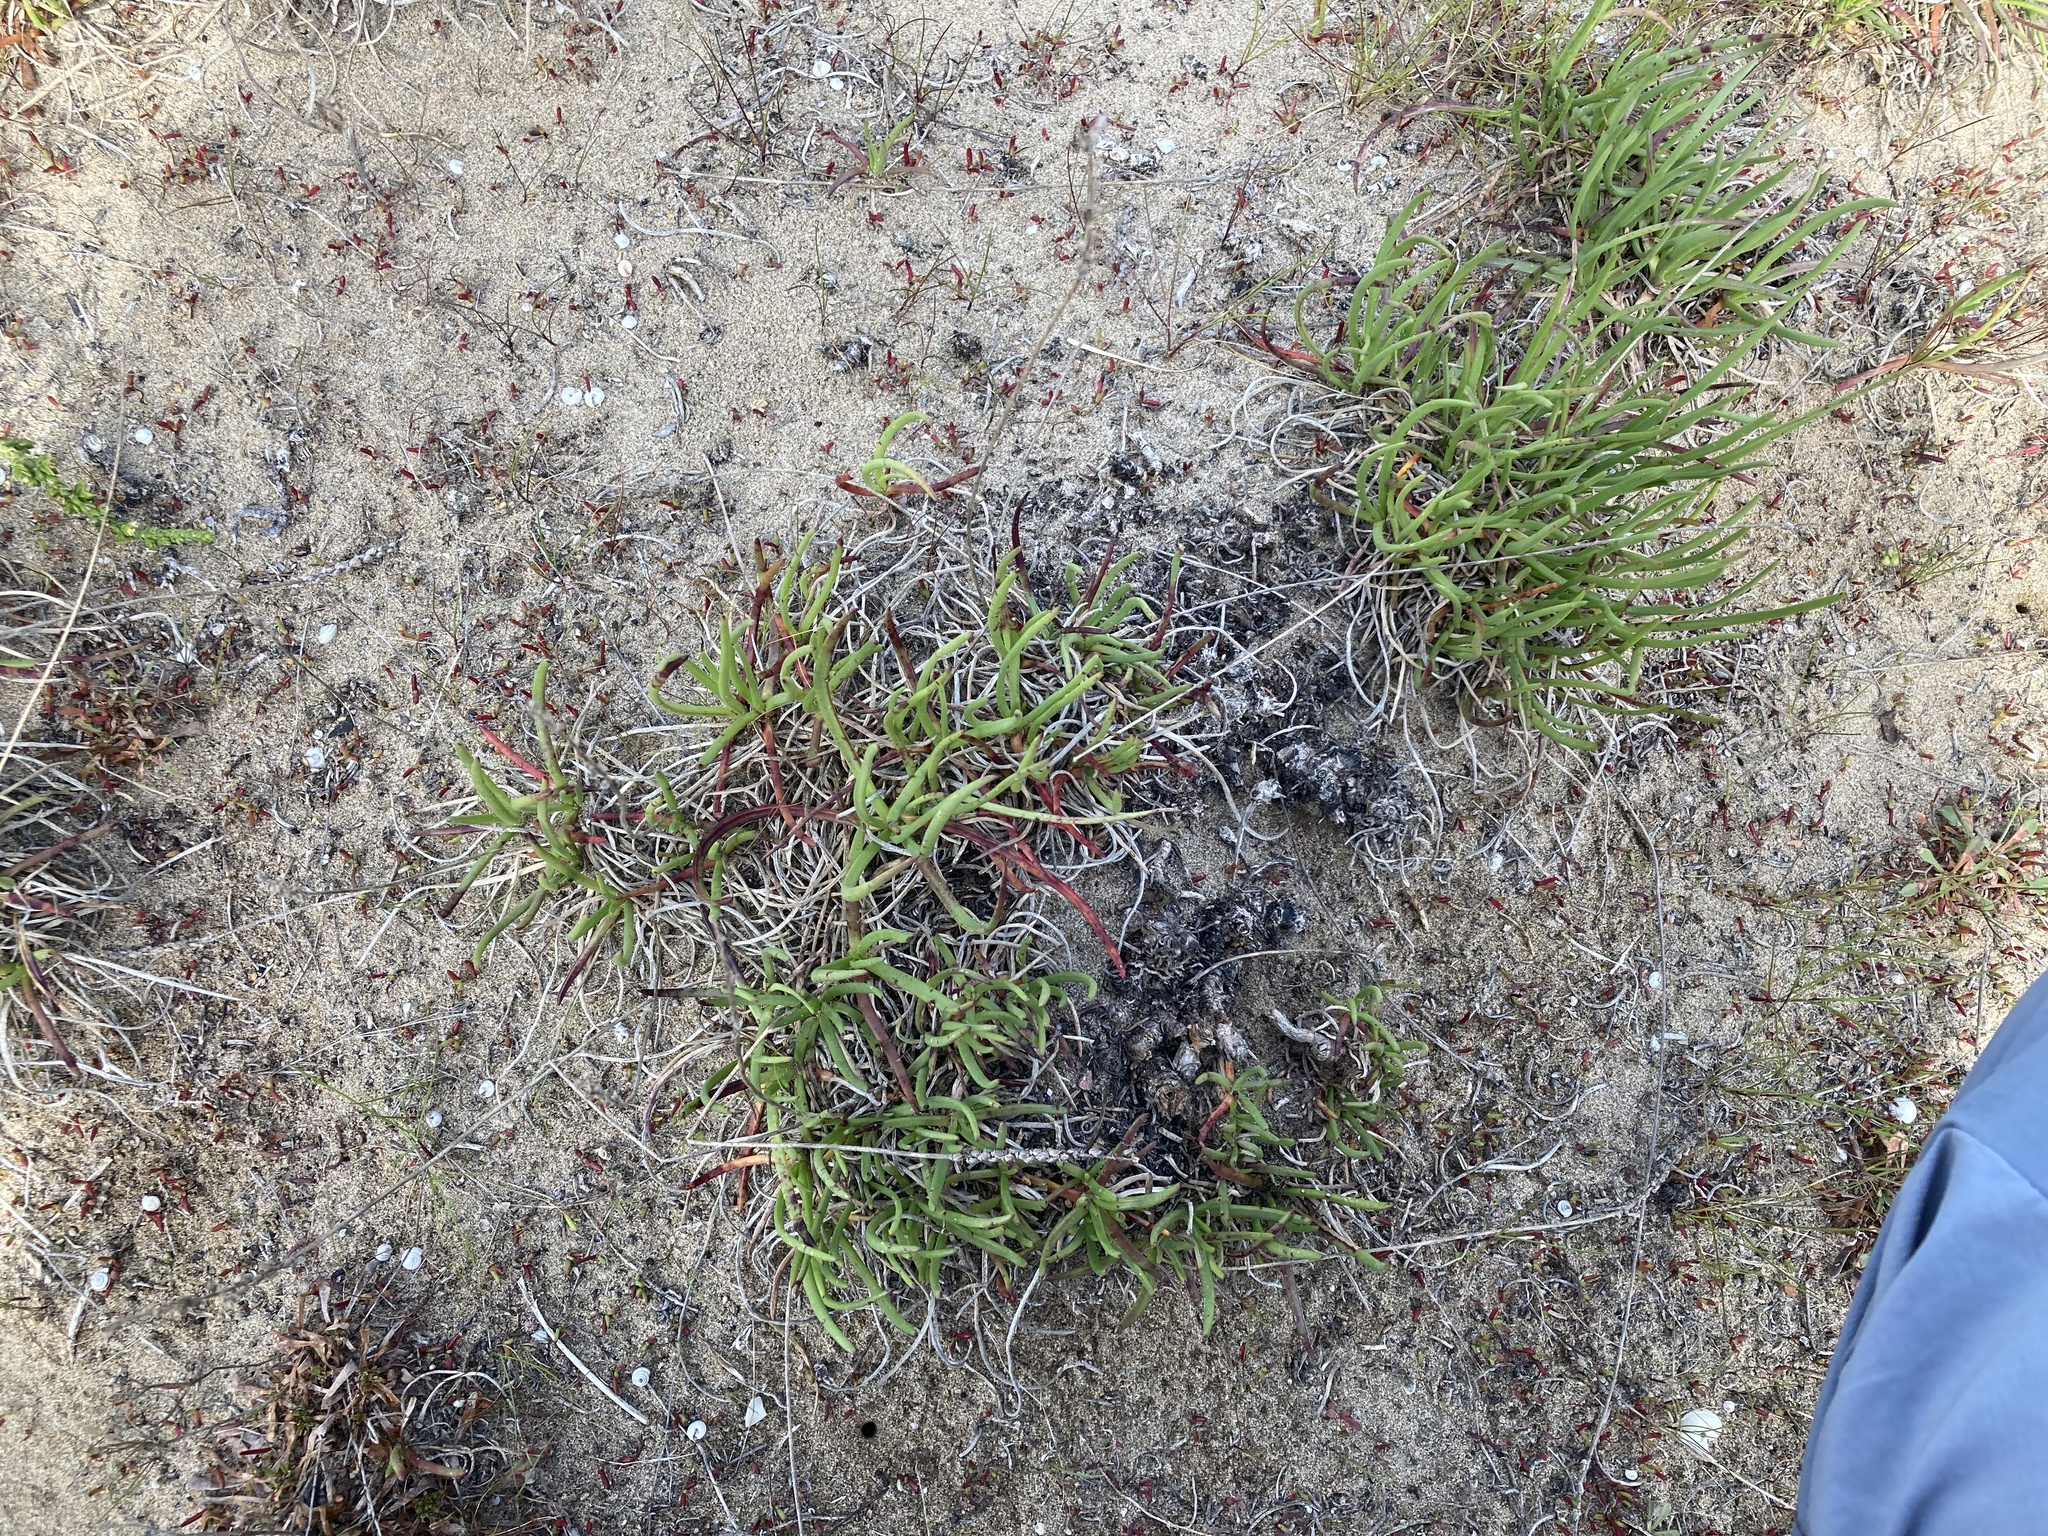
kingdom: Plantae
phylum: Tracheophyta
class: Magnoliopsida
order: Lamiales
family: Plantaginaceae
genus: Plantago
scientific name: Plantago crassifolia
